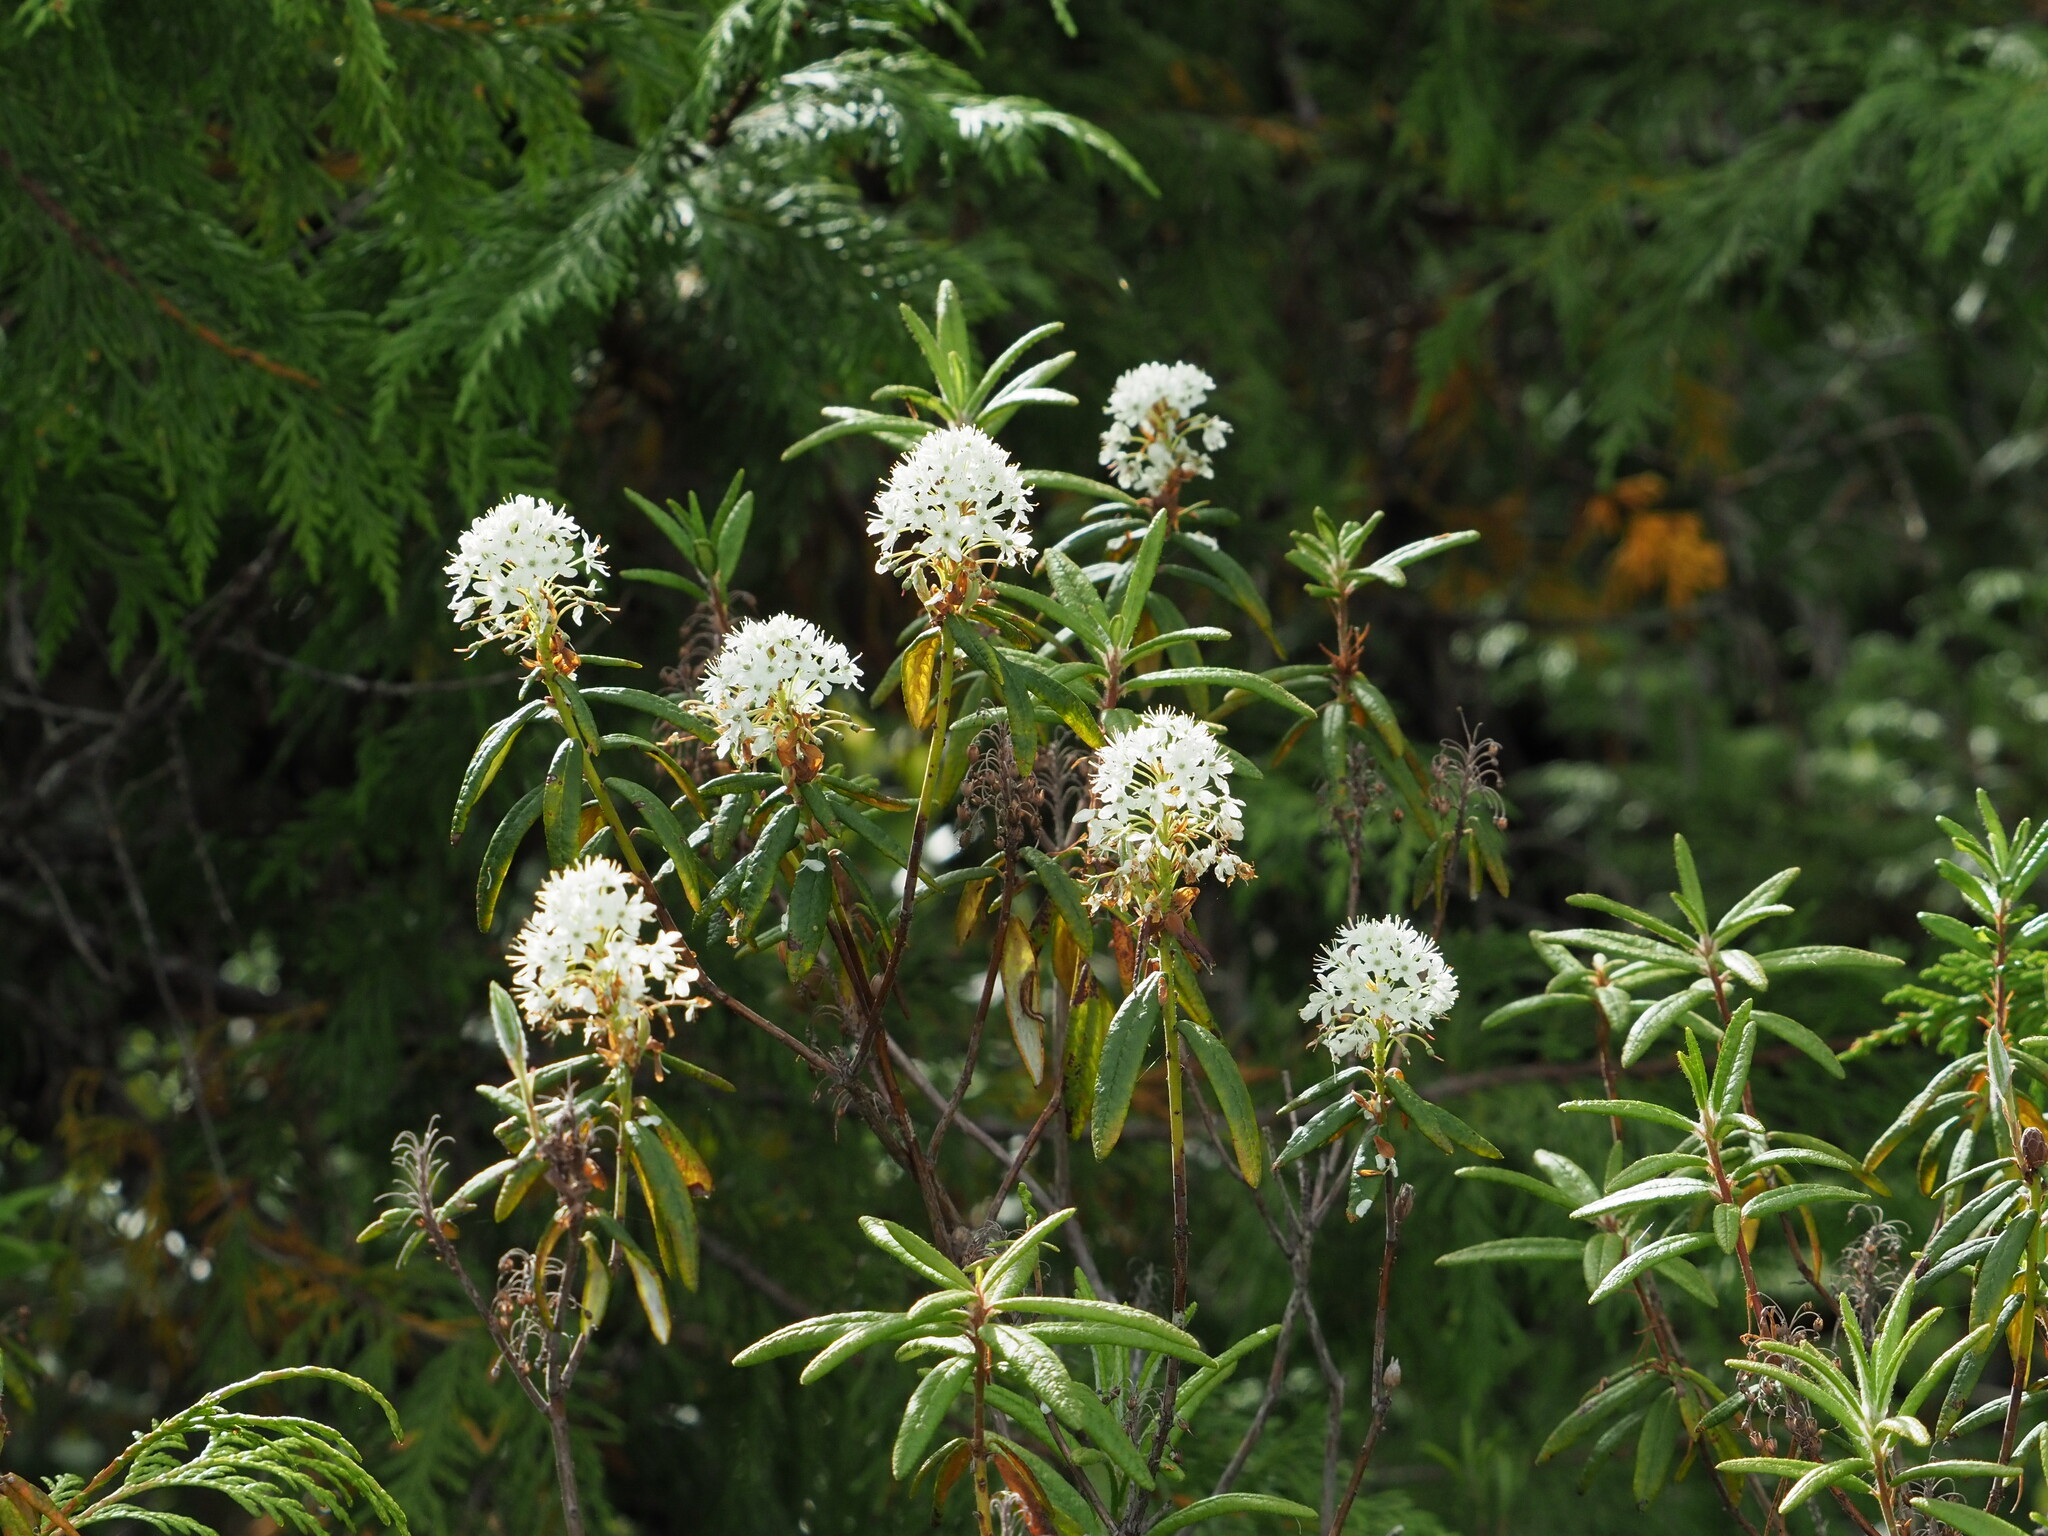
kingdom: Plantae
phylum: Tracheophyta
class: Magnoliopsida
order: Ericales
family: Ericaceae
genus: Rhododendron
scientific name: Rhododendron groenlandicum
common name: Bog labrador tea
